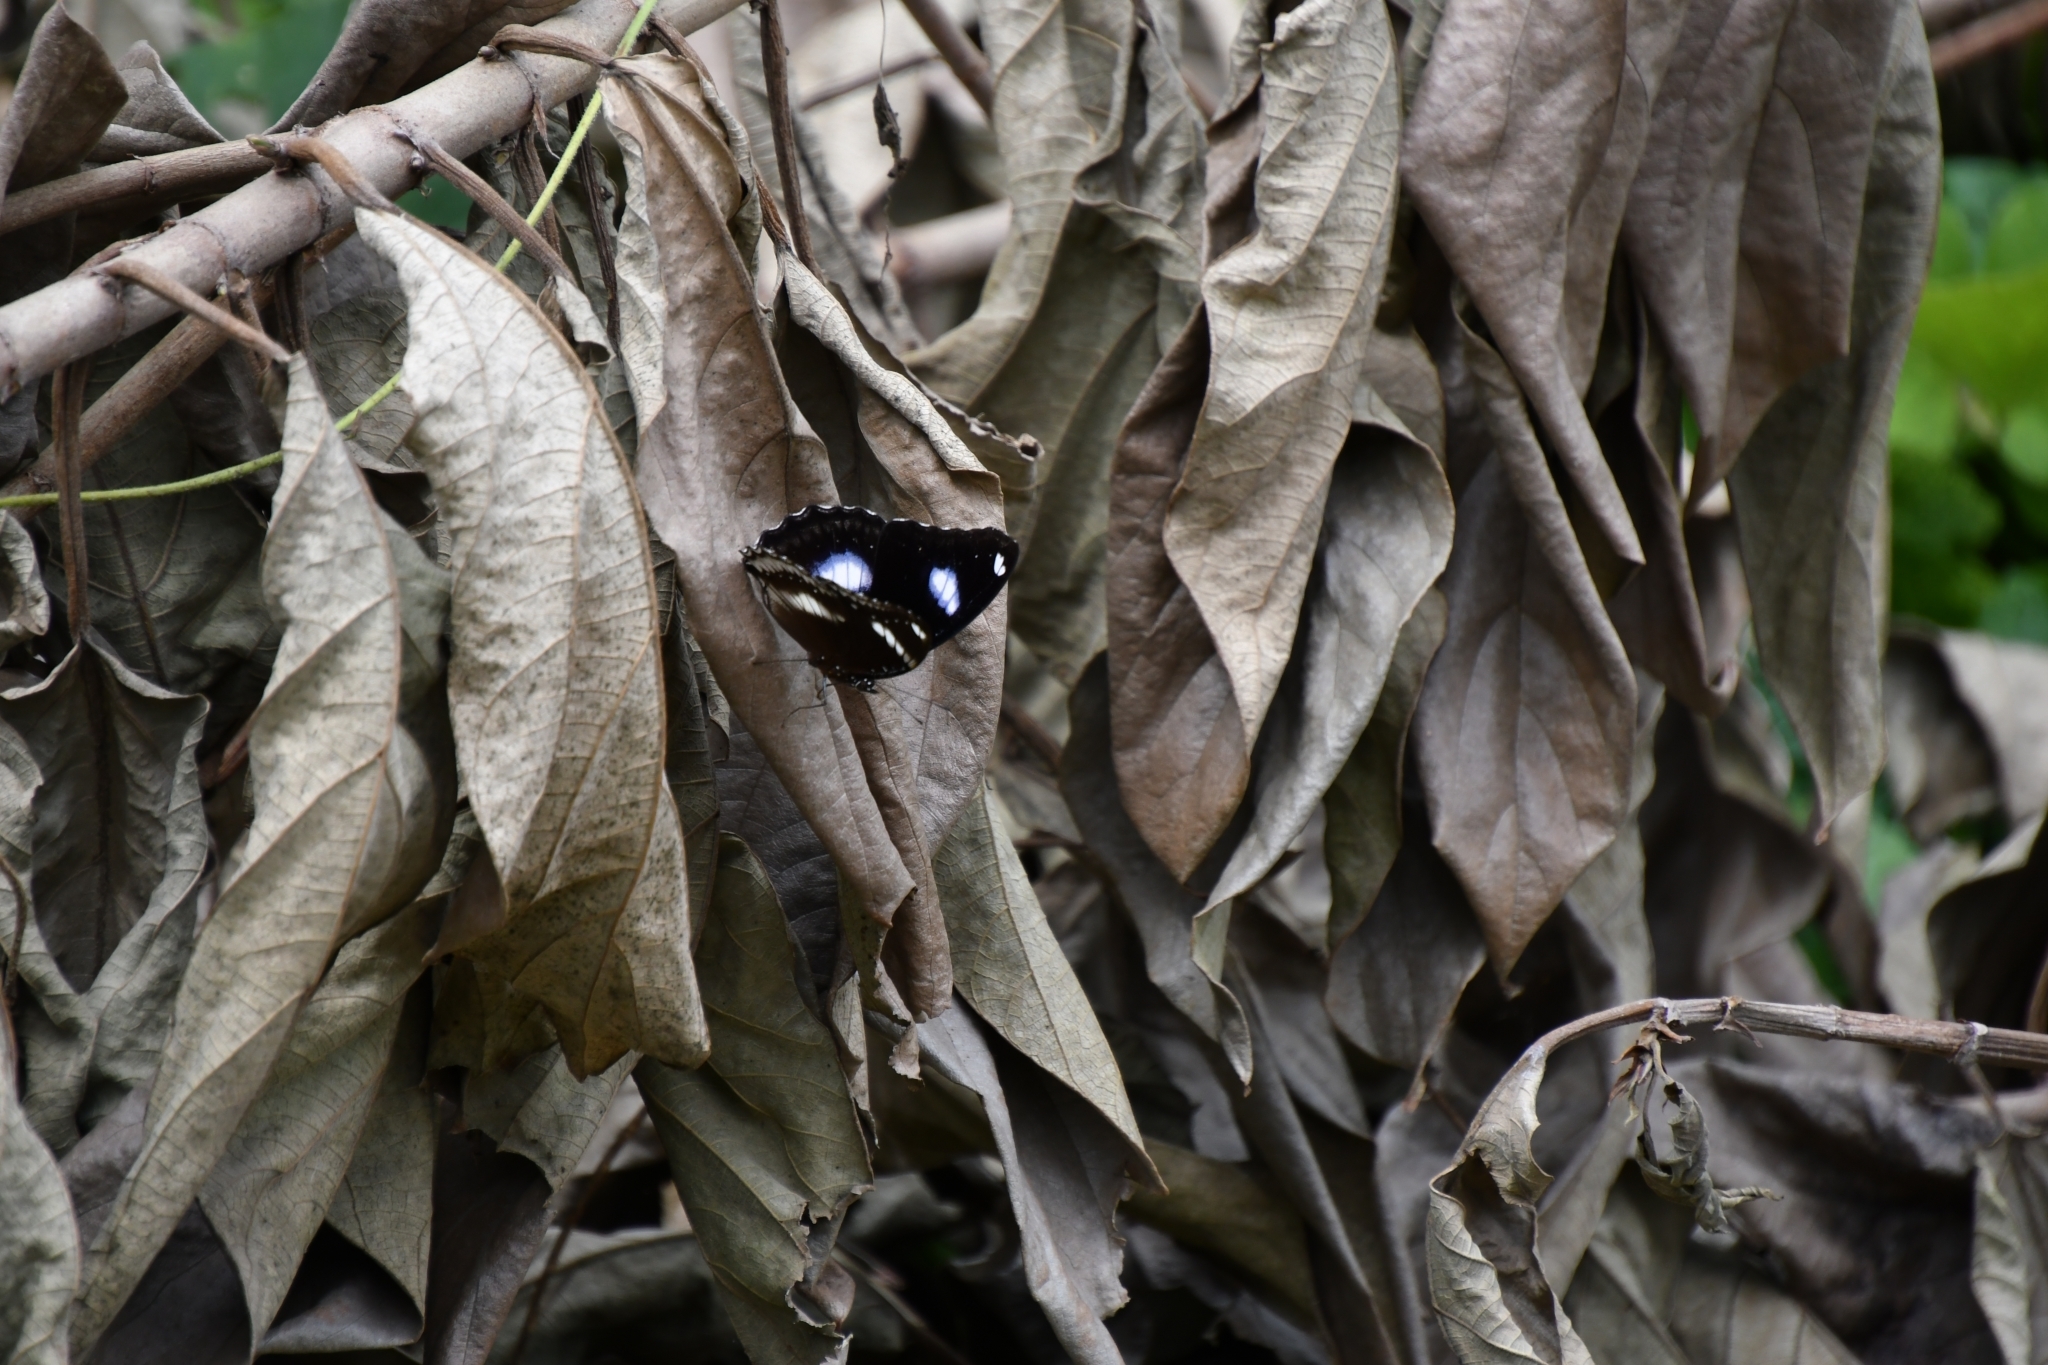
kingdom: Animalia
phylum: Arthropoda
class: Insecta
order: Lepidoptera
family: Nymphalidae
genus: Hypolimnas
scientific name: Hypolimnas bolina
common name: Great eggfly
